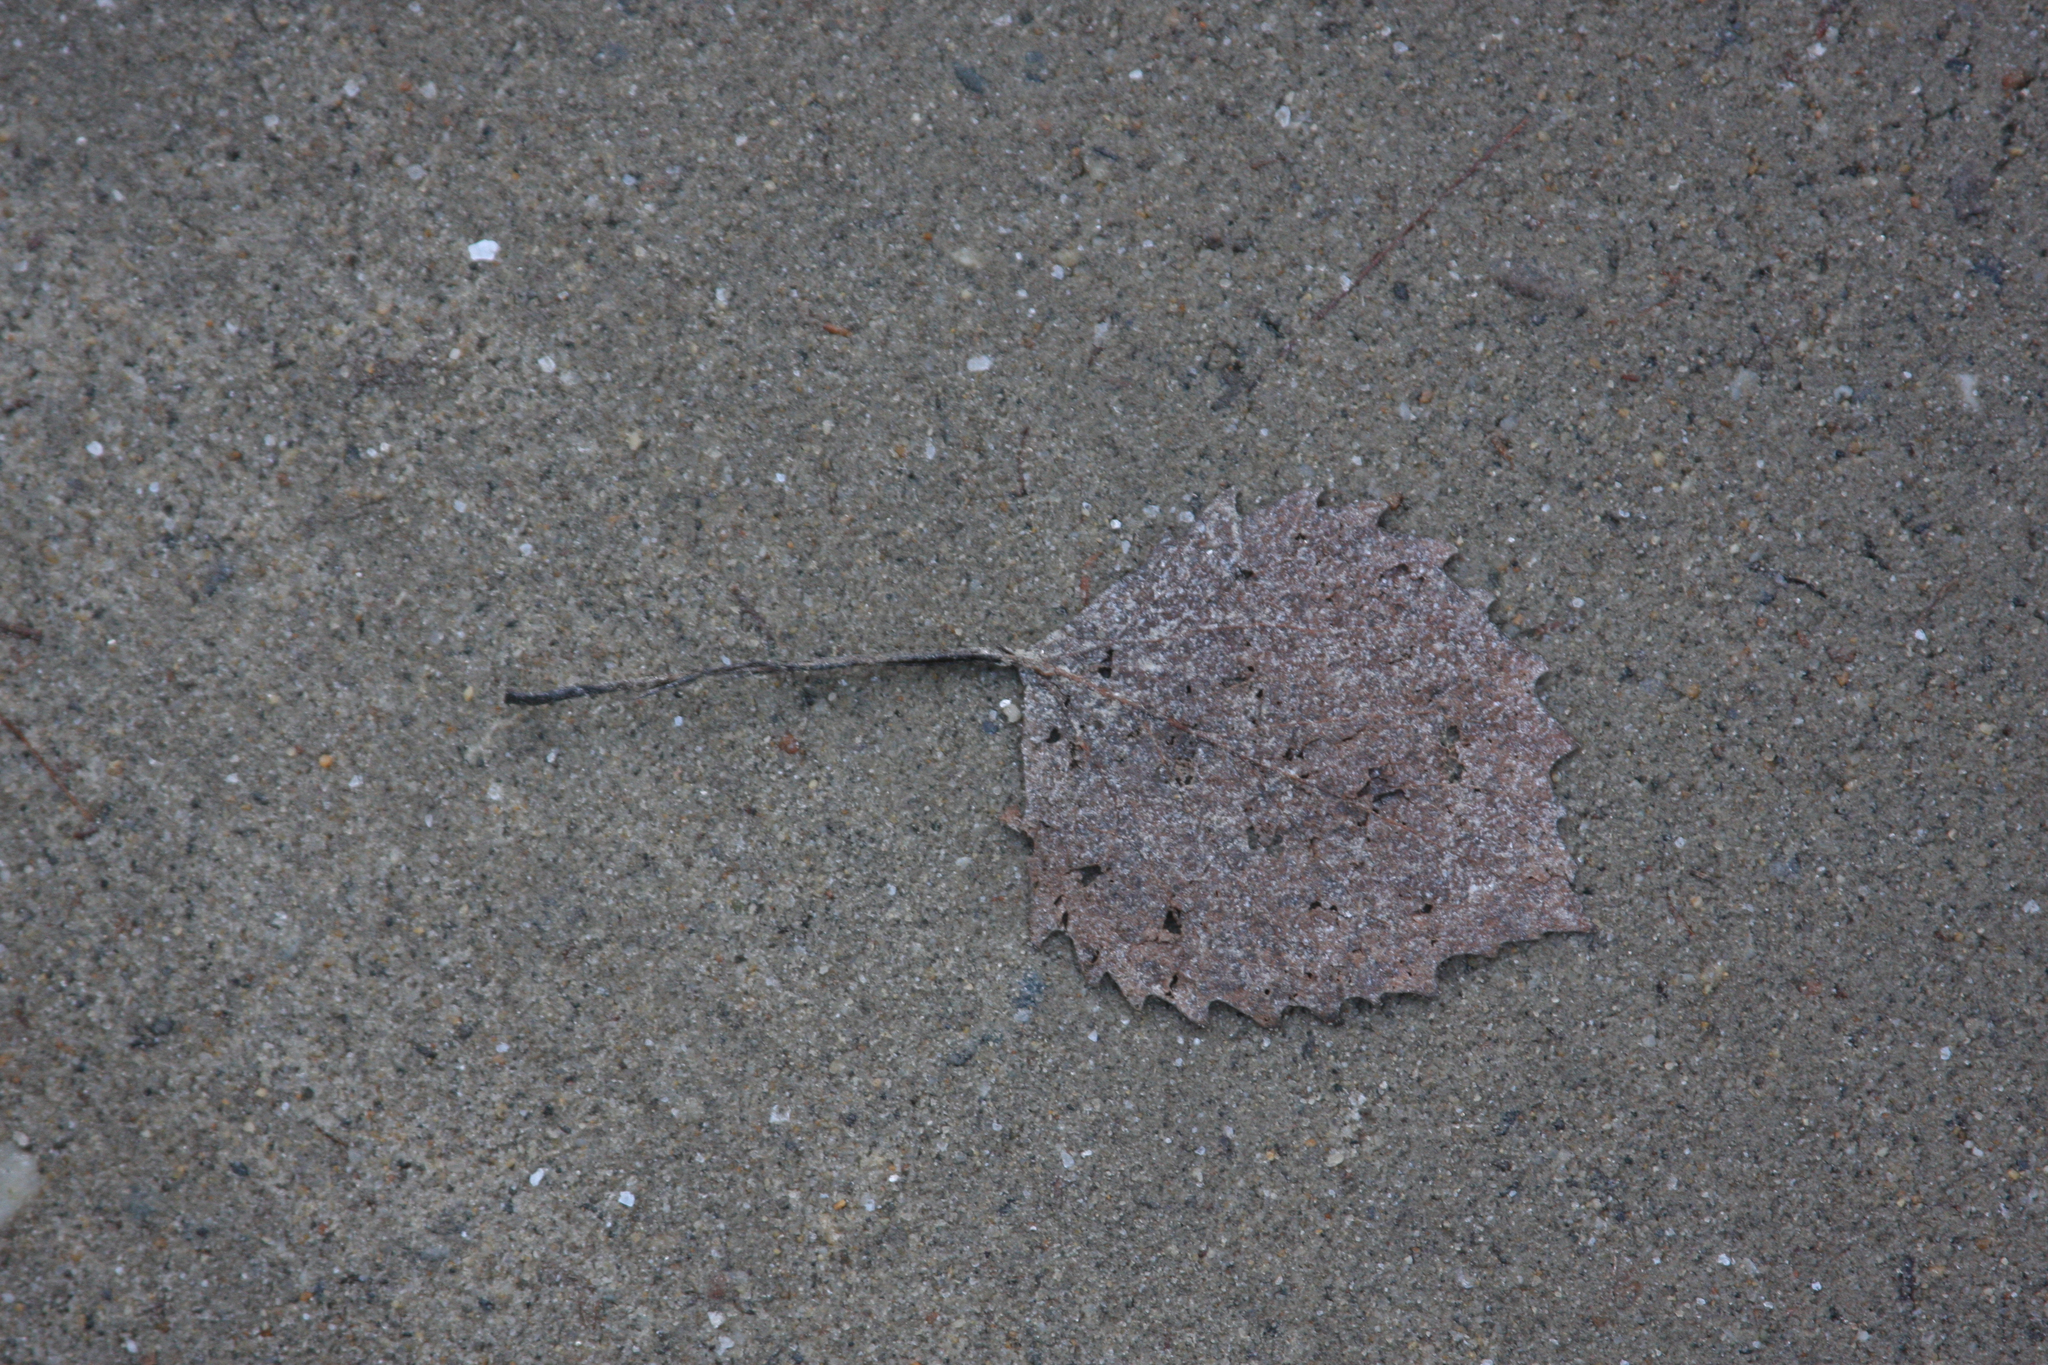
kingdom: Plantae
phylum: Tracheophyta
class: Magnoliopsida
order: Malpighiales
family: Salicaceae
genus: Populus
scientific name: Populus grandidentata
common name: Bigtooth aspen
